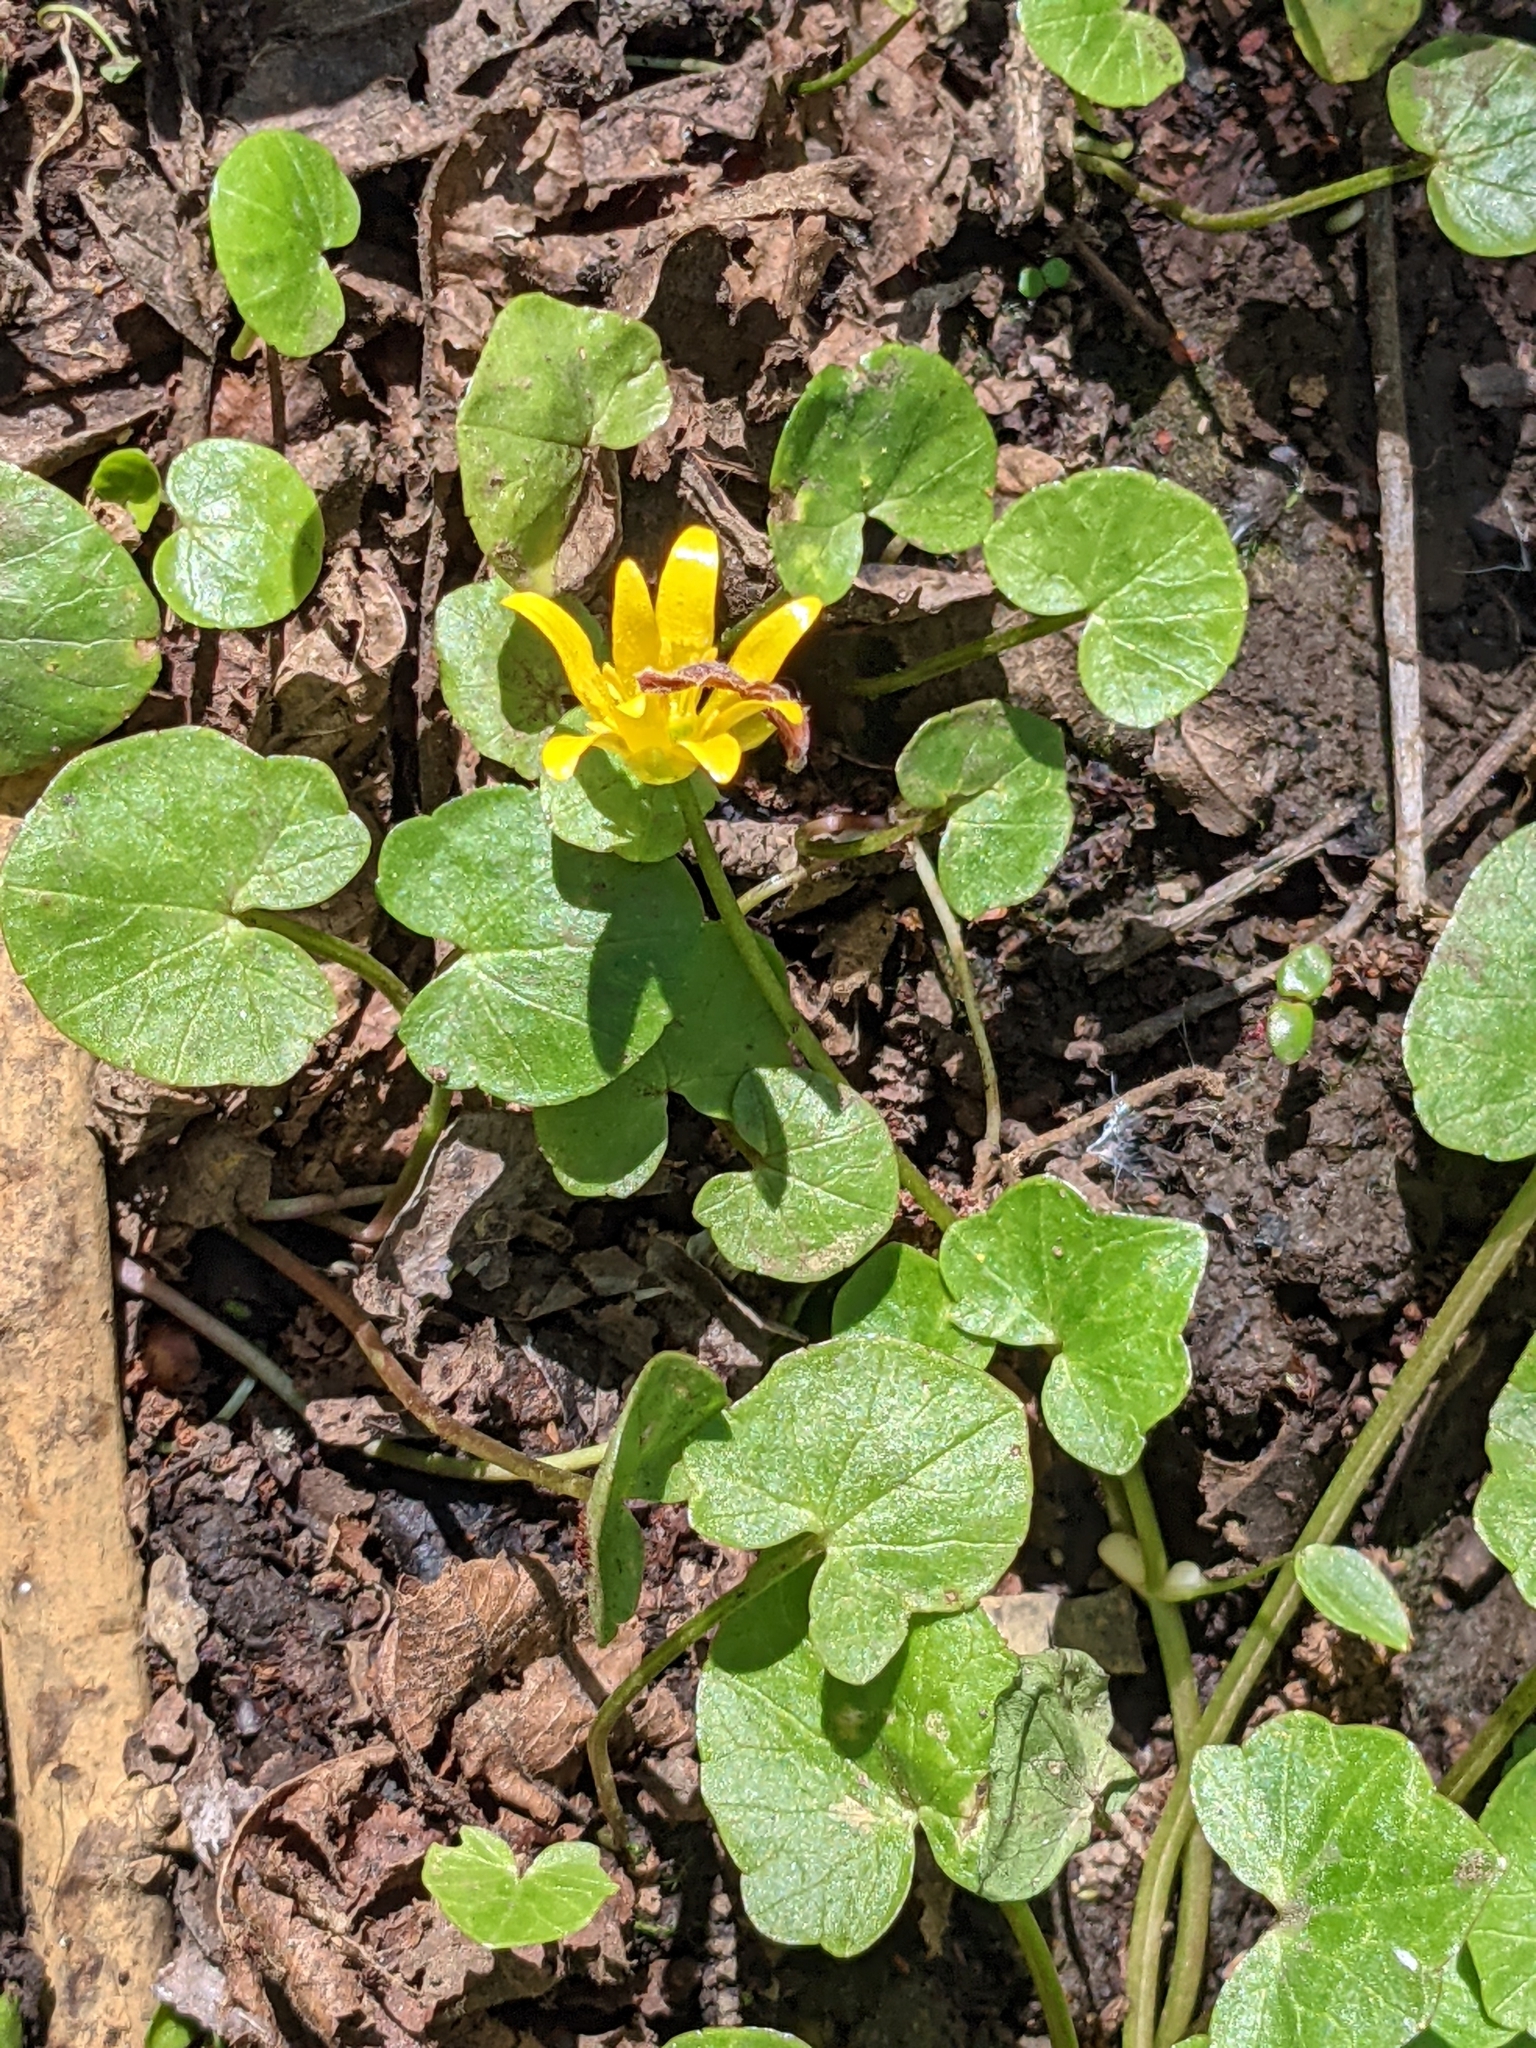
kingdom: Plantae
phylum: Tracheophyta
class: Magnoliopsida
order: Ranunculales
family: Ranunculaceae
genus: Ficaria
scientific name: Ficaria verna
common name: Lesser celandine
